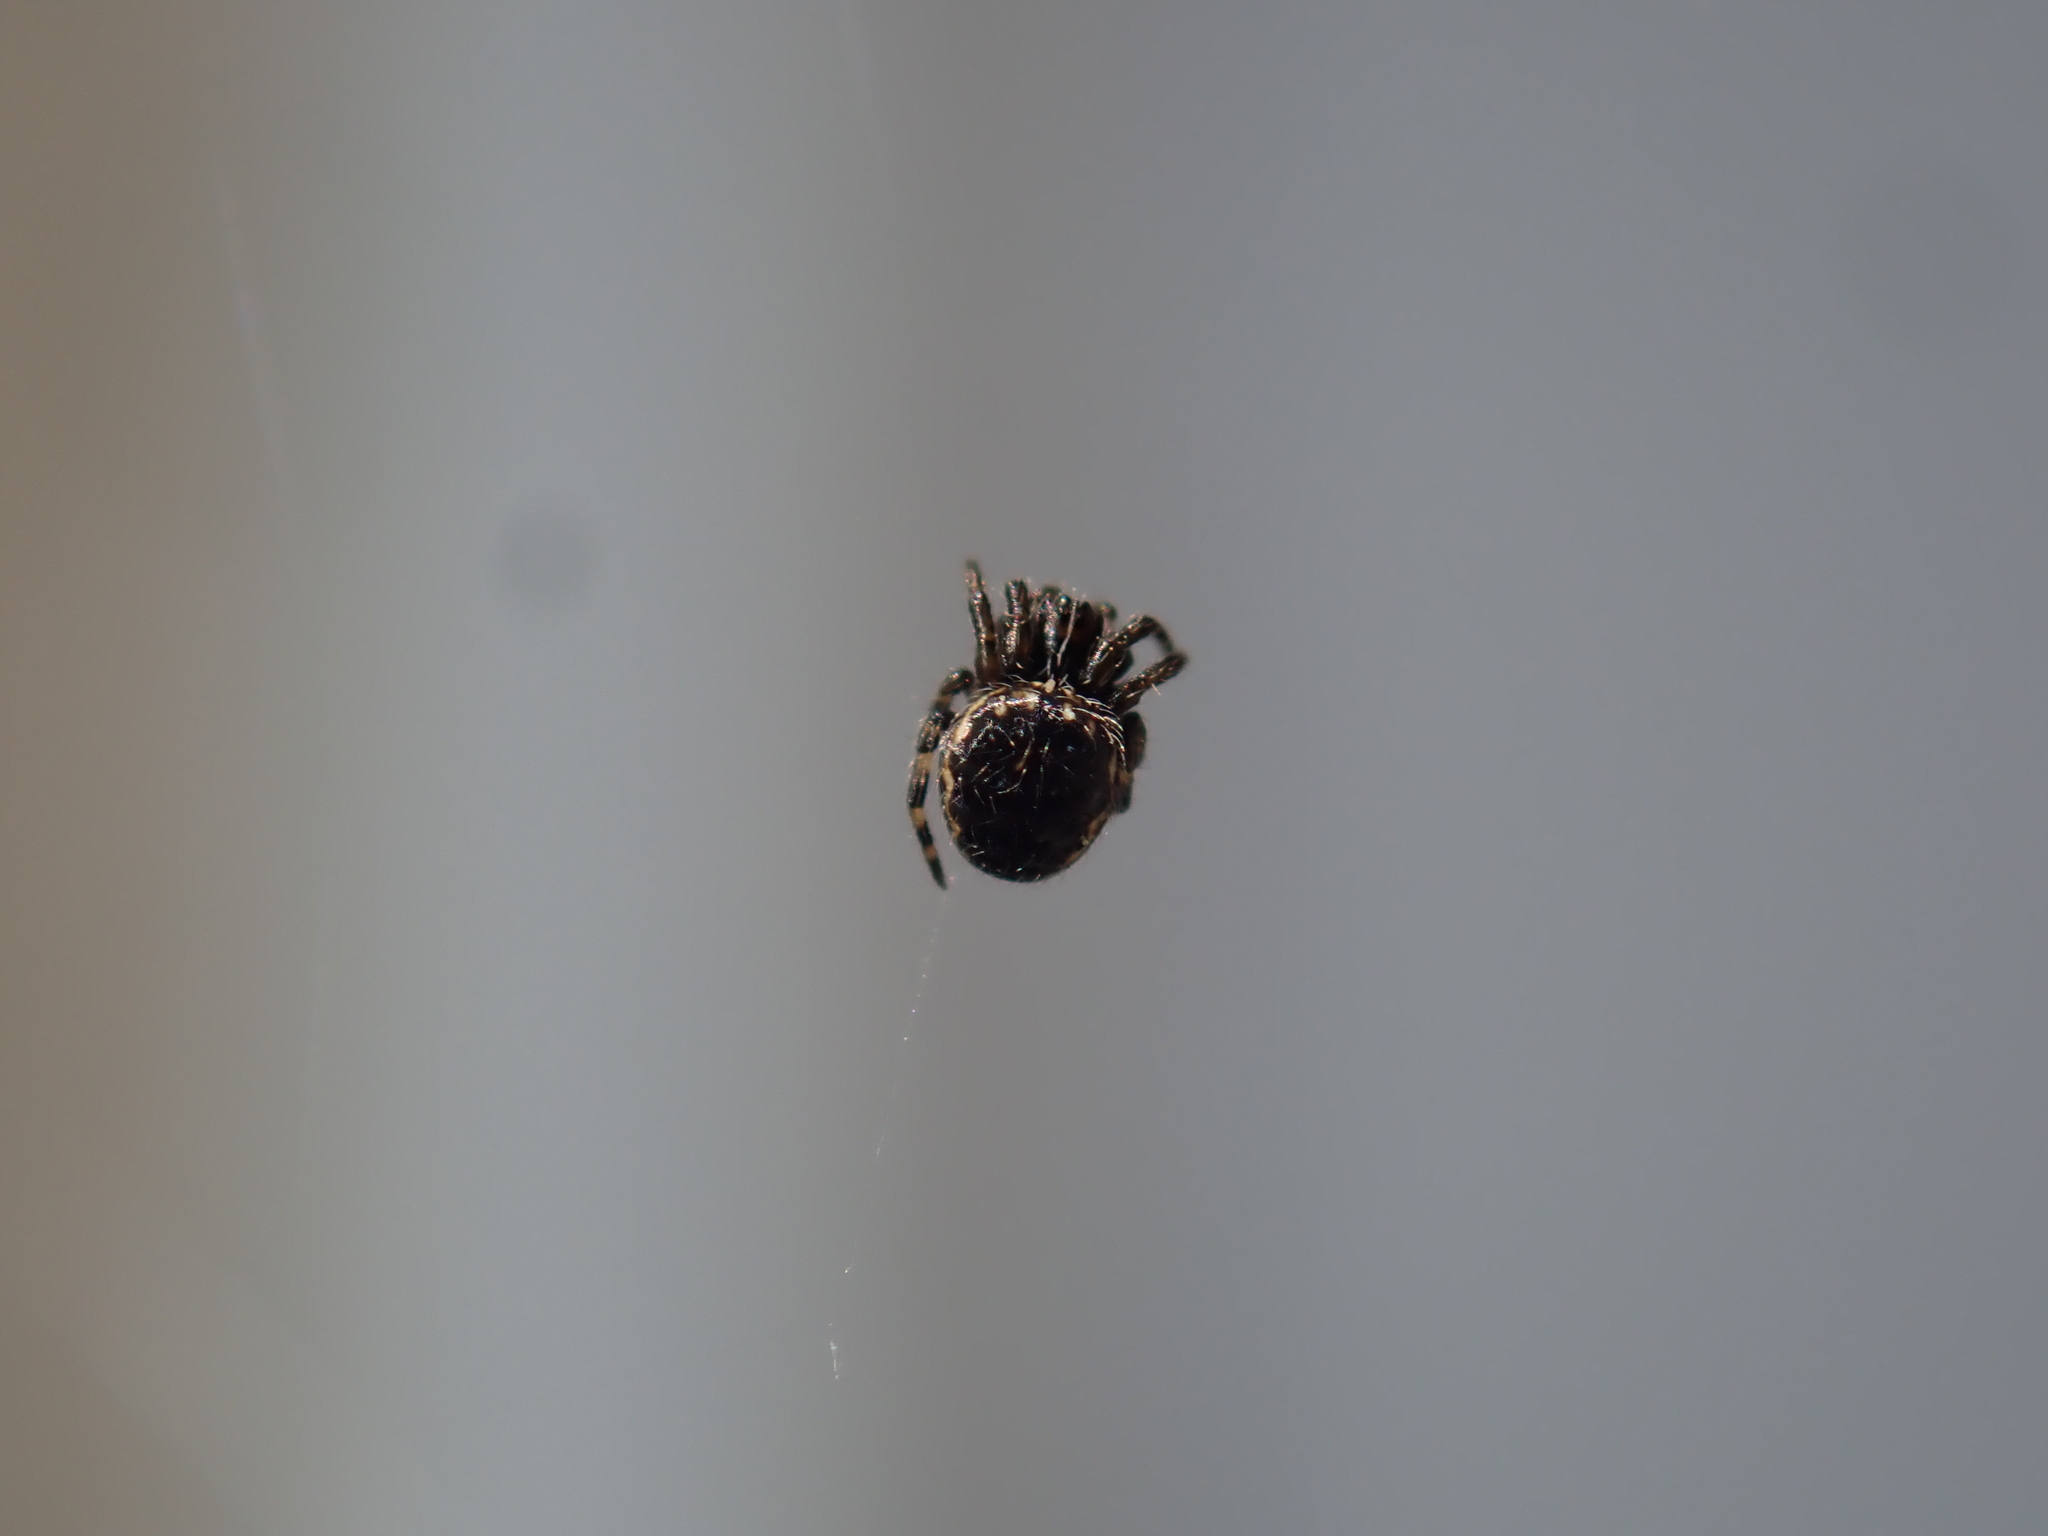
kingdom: Animalia
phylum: Arthropoda
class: Arachnida
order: Araneae
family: Araneidae
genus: Nuctenea
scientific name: Nuctenea umbratica
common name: Toad spider
